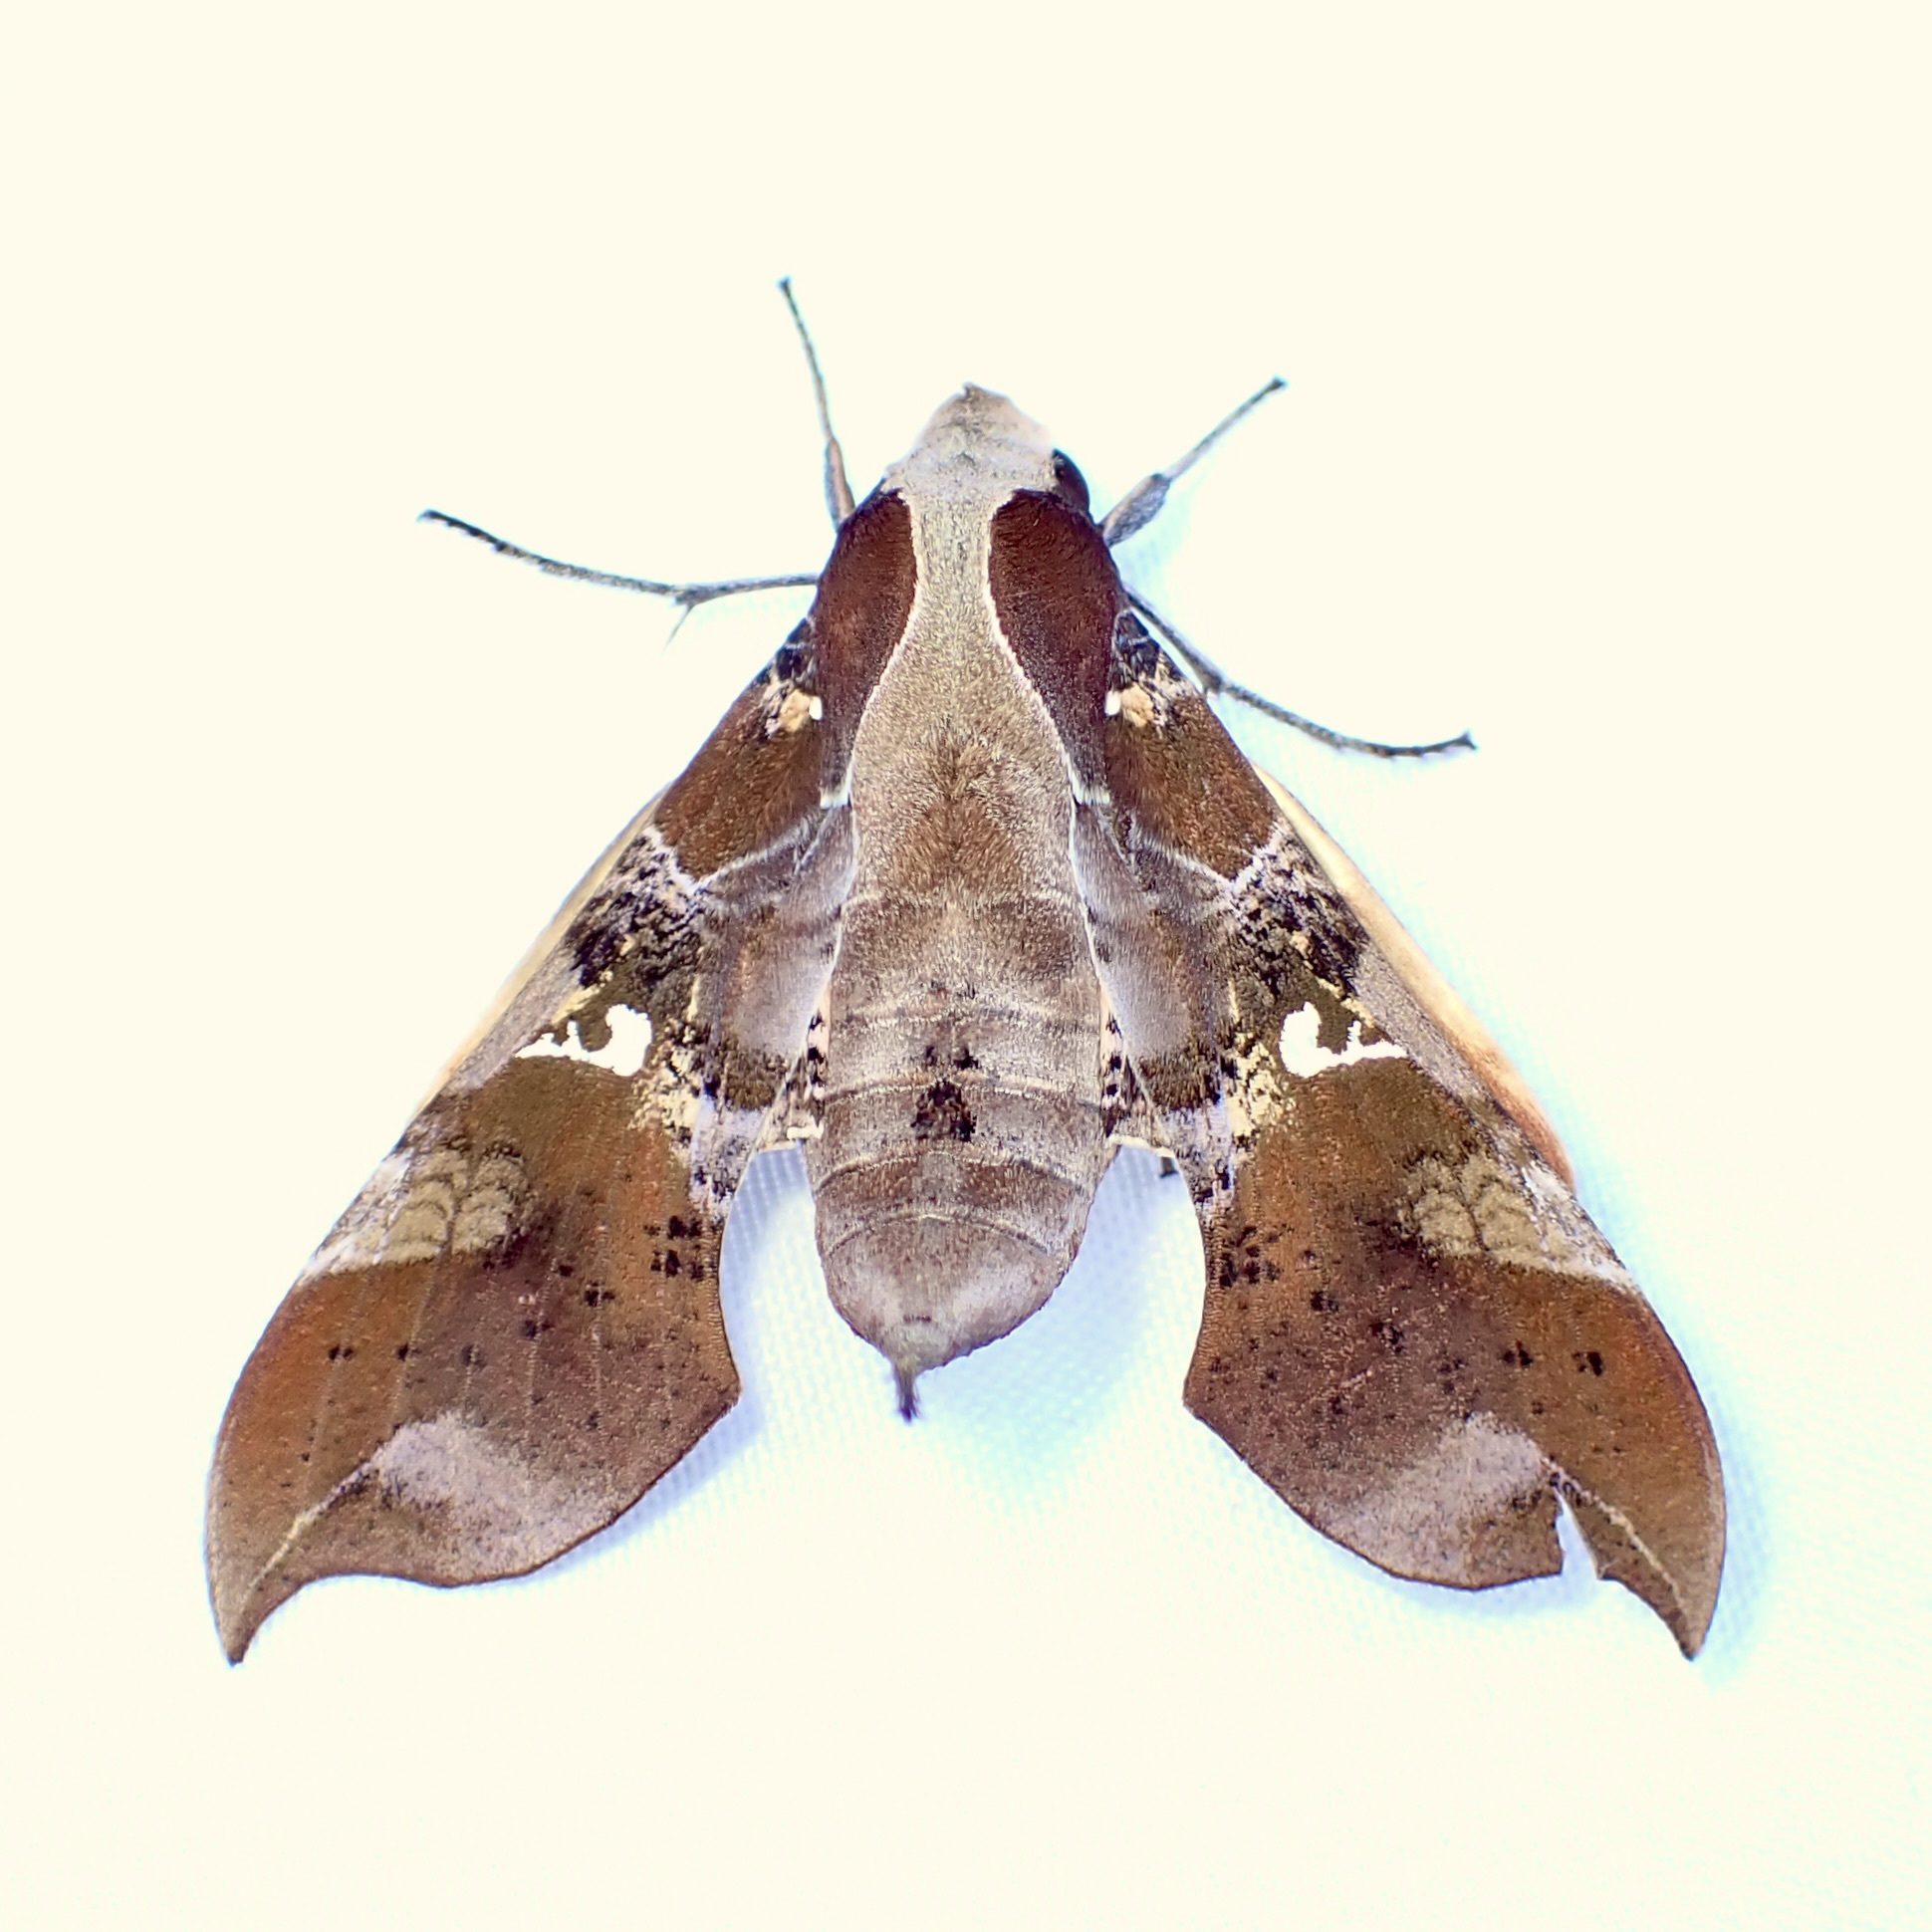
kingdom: Animalia
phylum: Arthropoda
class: Insecta
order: Lepidoptera
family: Sphingidae
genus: Callionima
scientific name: Callionima falcifera
